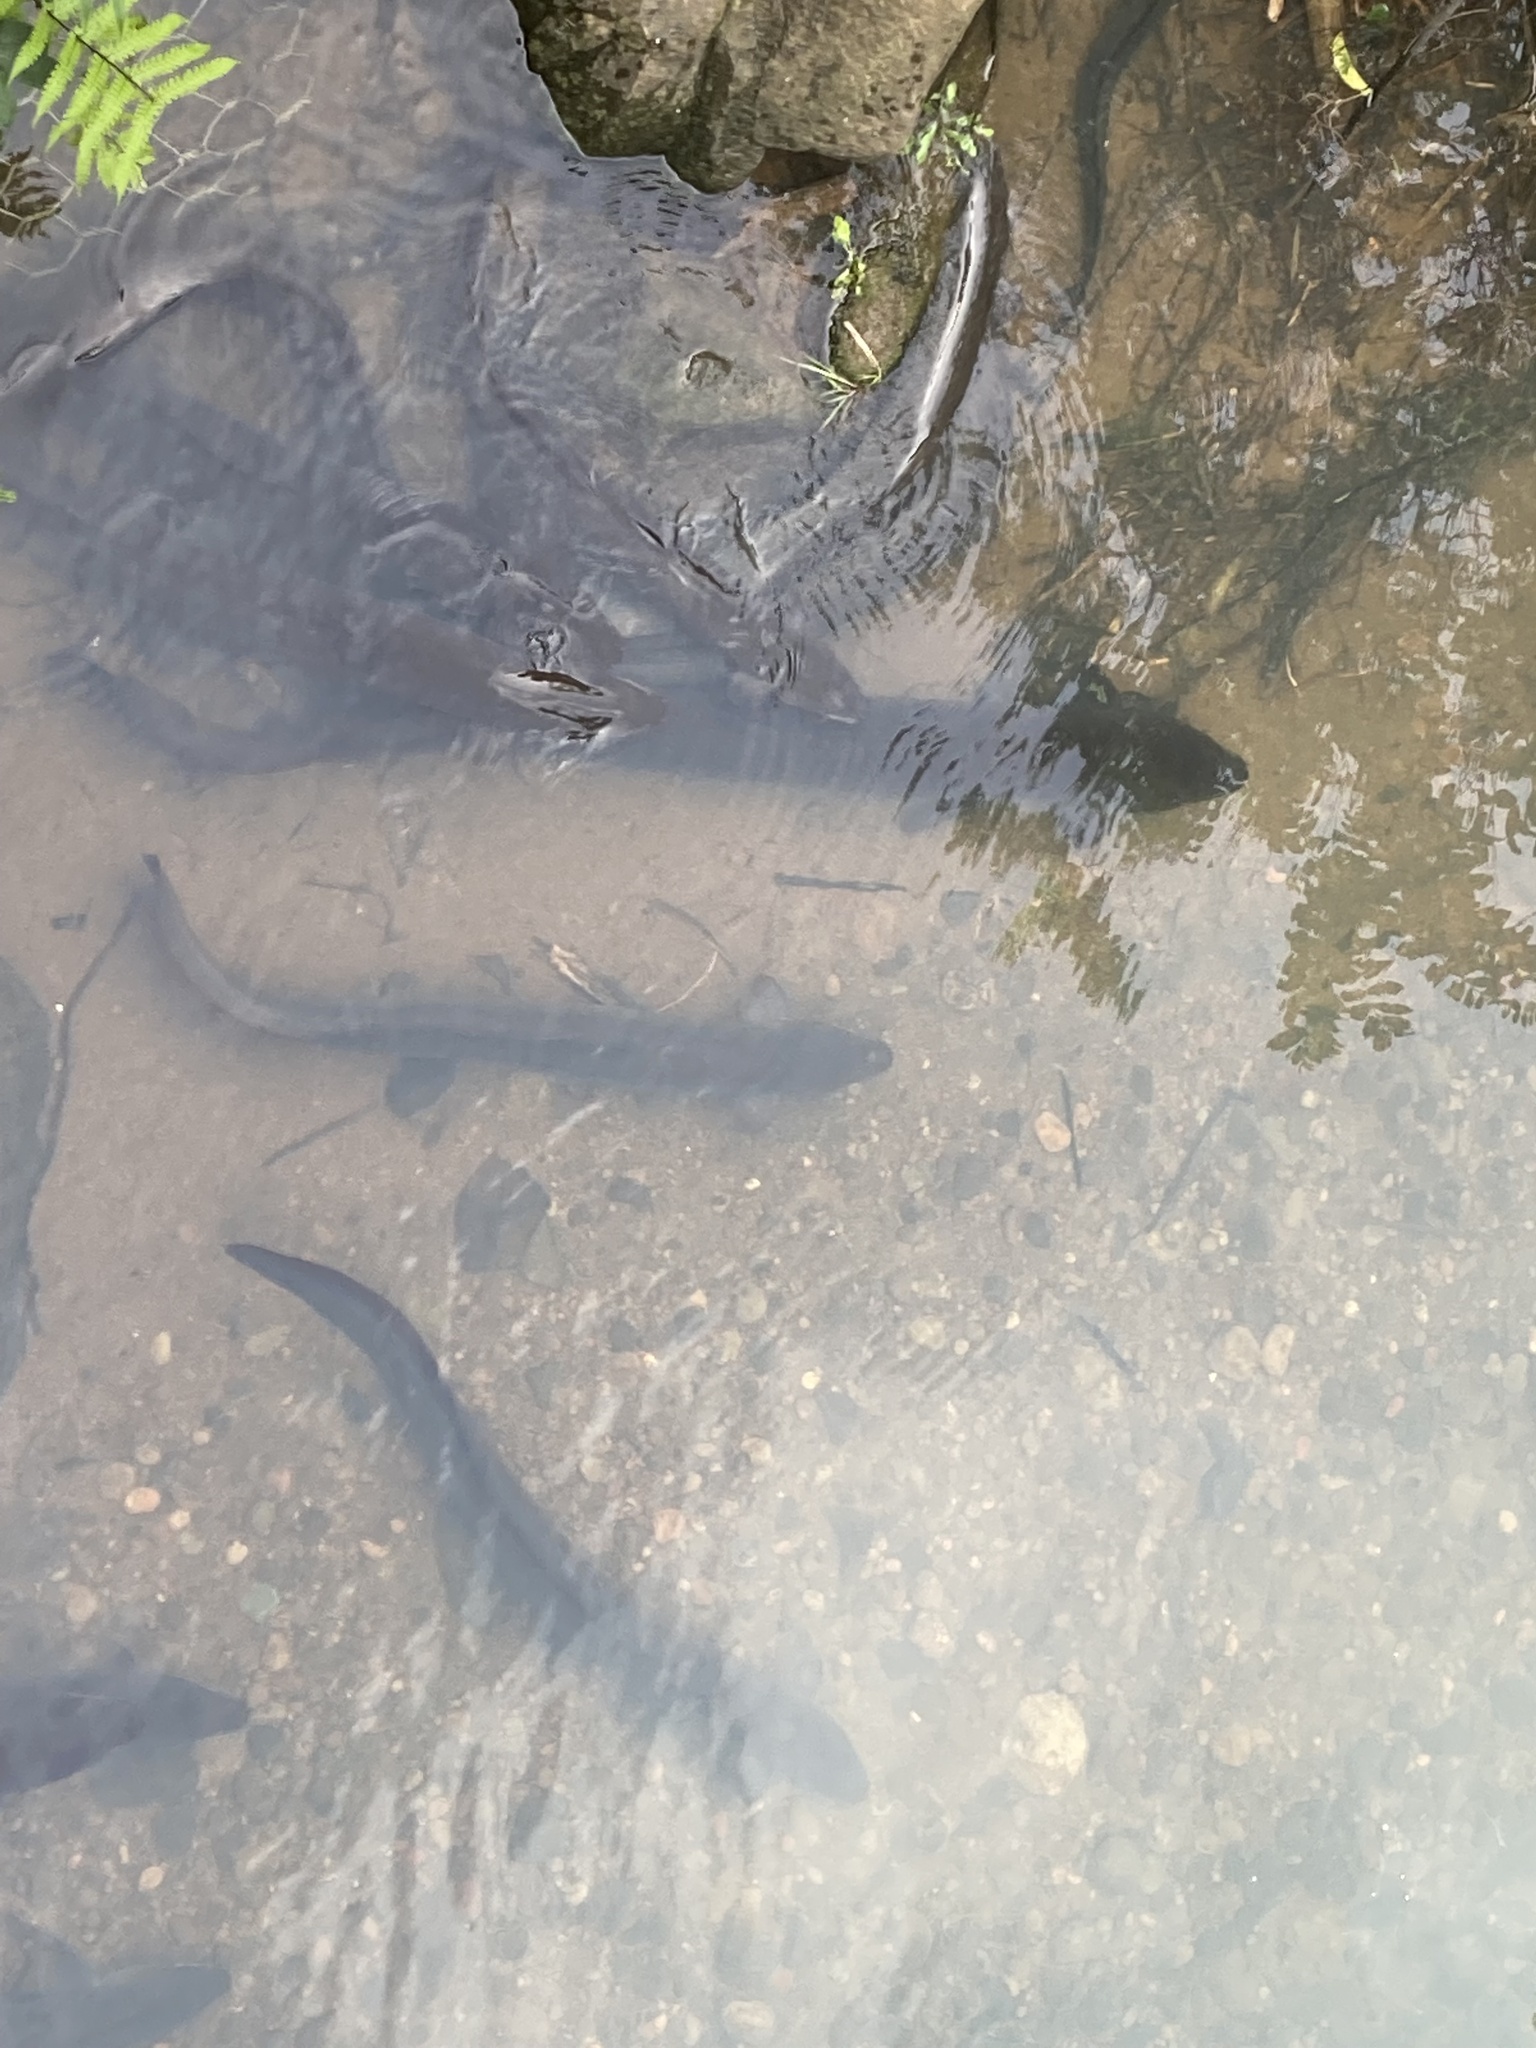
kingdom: Animalia
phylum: Chordata
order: Anguilliformes
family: Anguillidae
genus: Anguilla
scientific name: Anguilla dieffenbachii
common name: New zealand longfin eel
